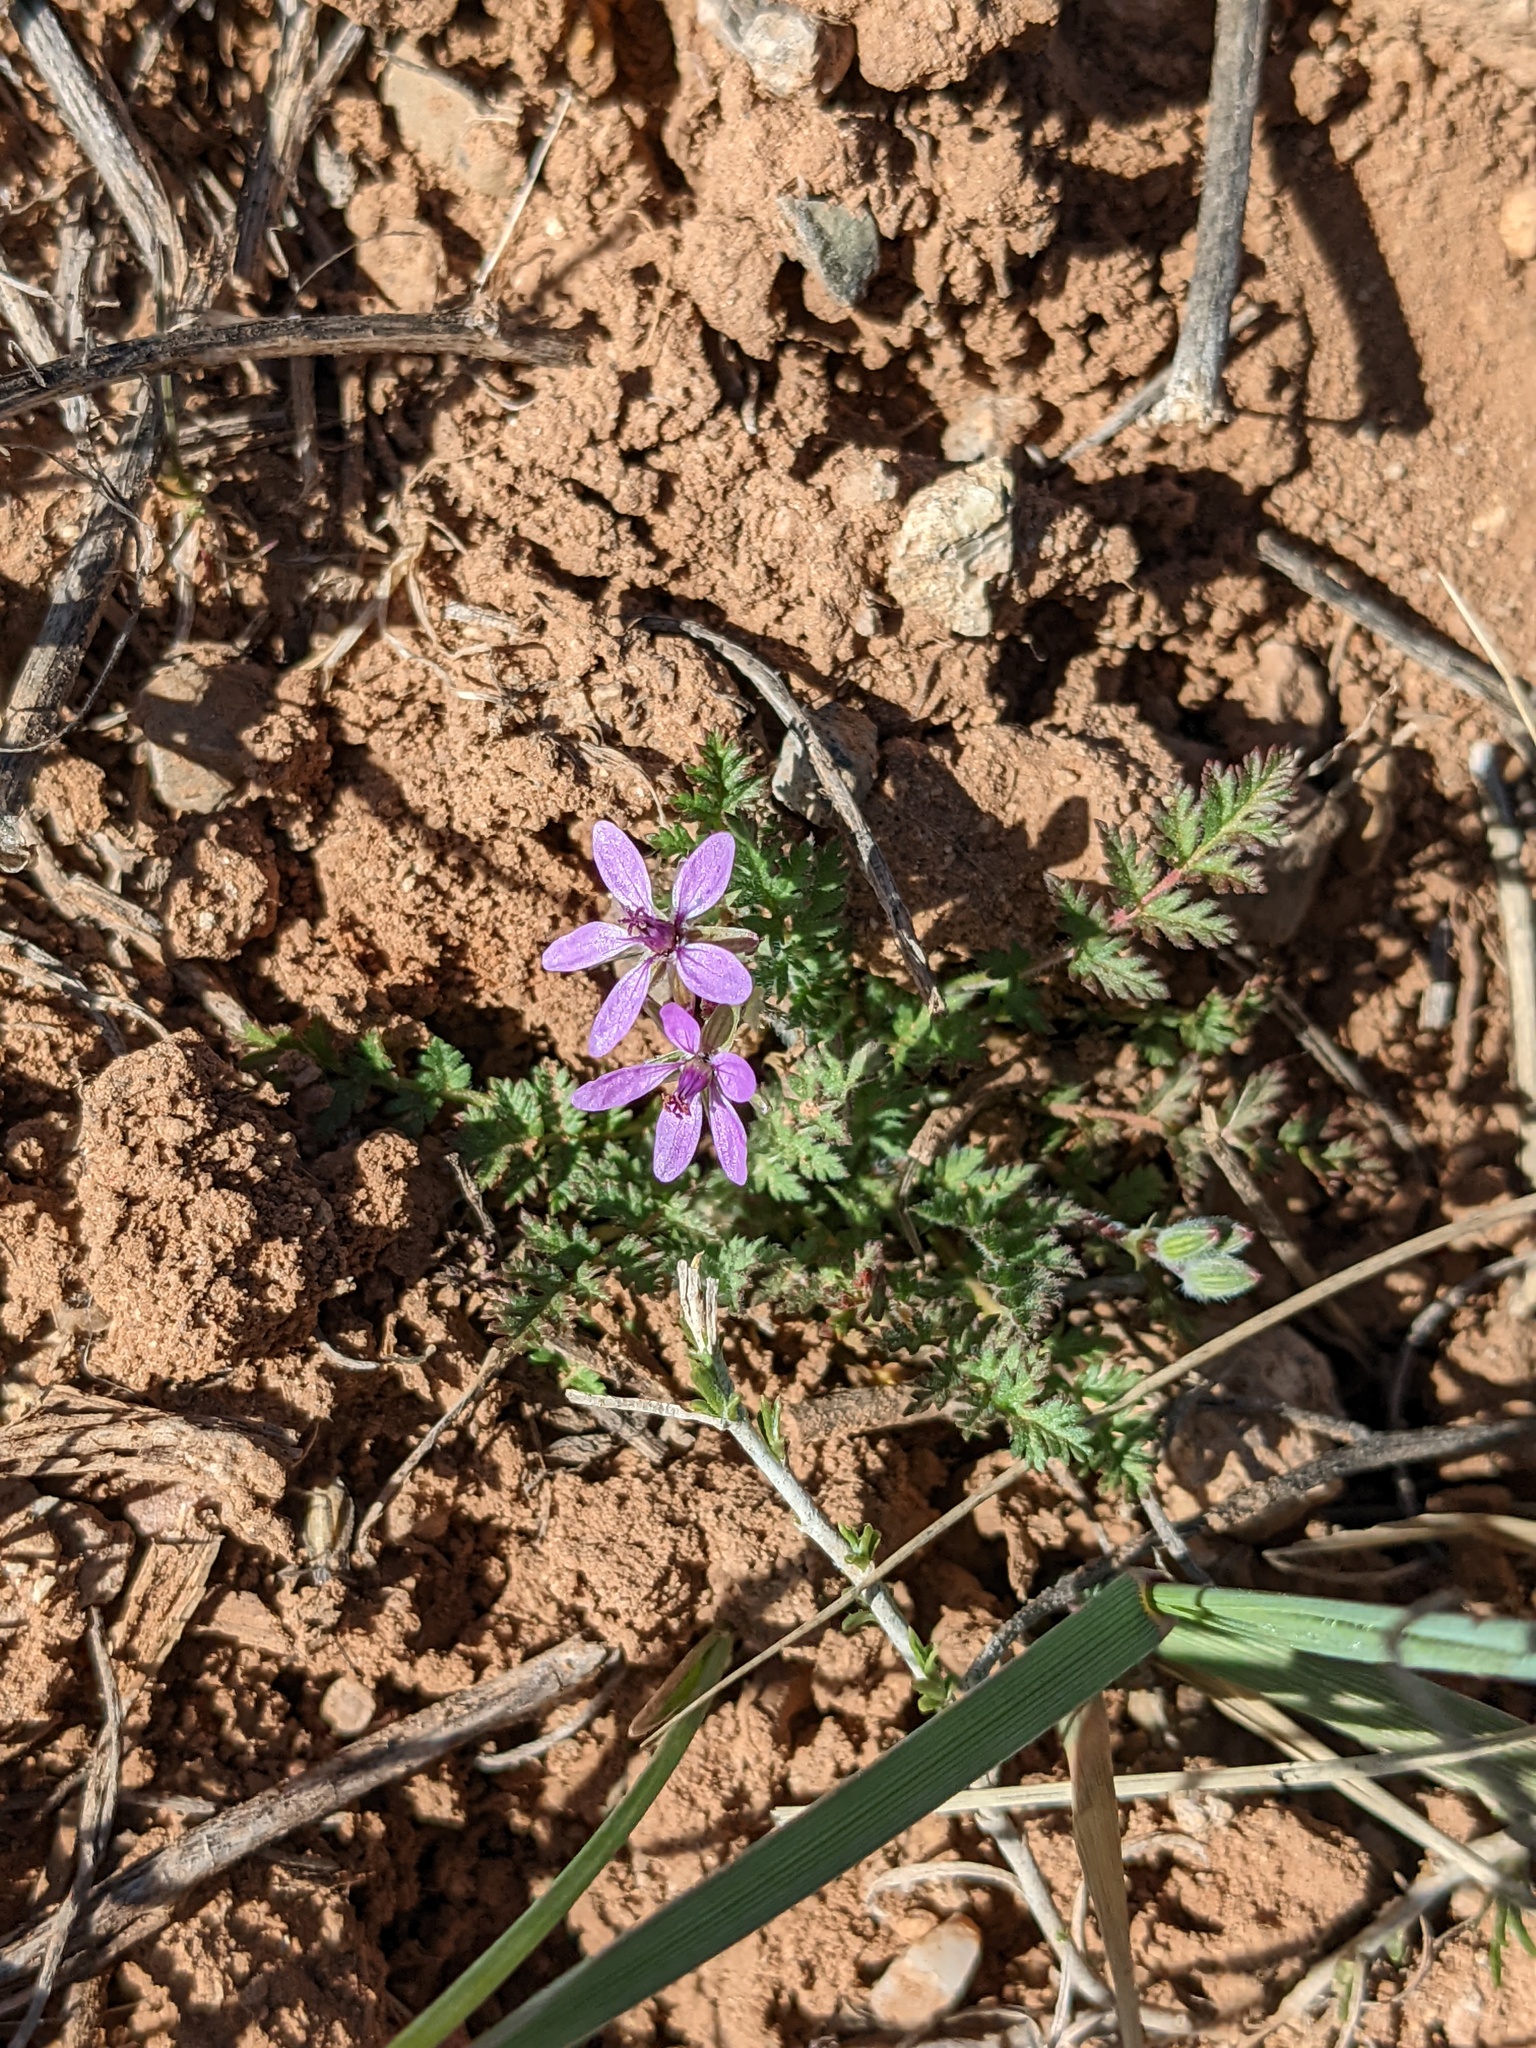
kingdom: Plantae
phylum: Tracheophyta
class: Magnoliopsida
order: Geraniales
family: Geraniaceae
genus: Erodium
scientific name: Erodium cicutarium
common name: Common stork's-bill
